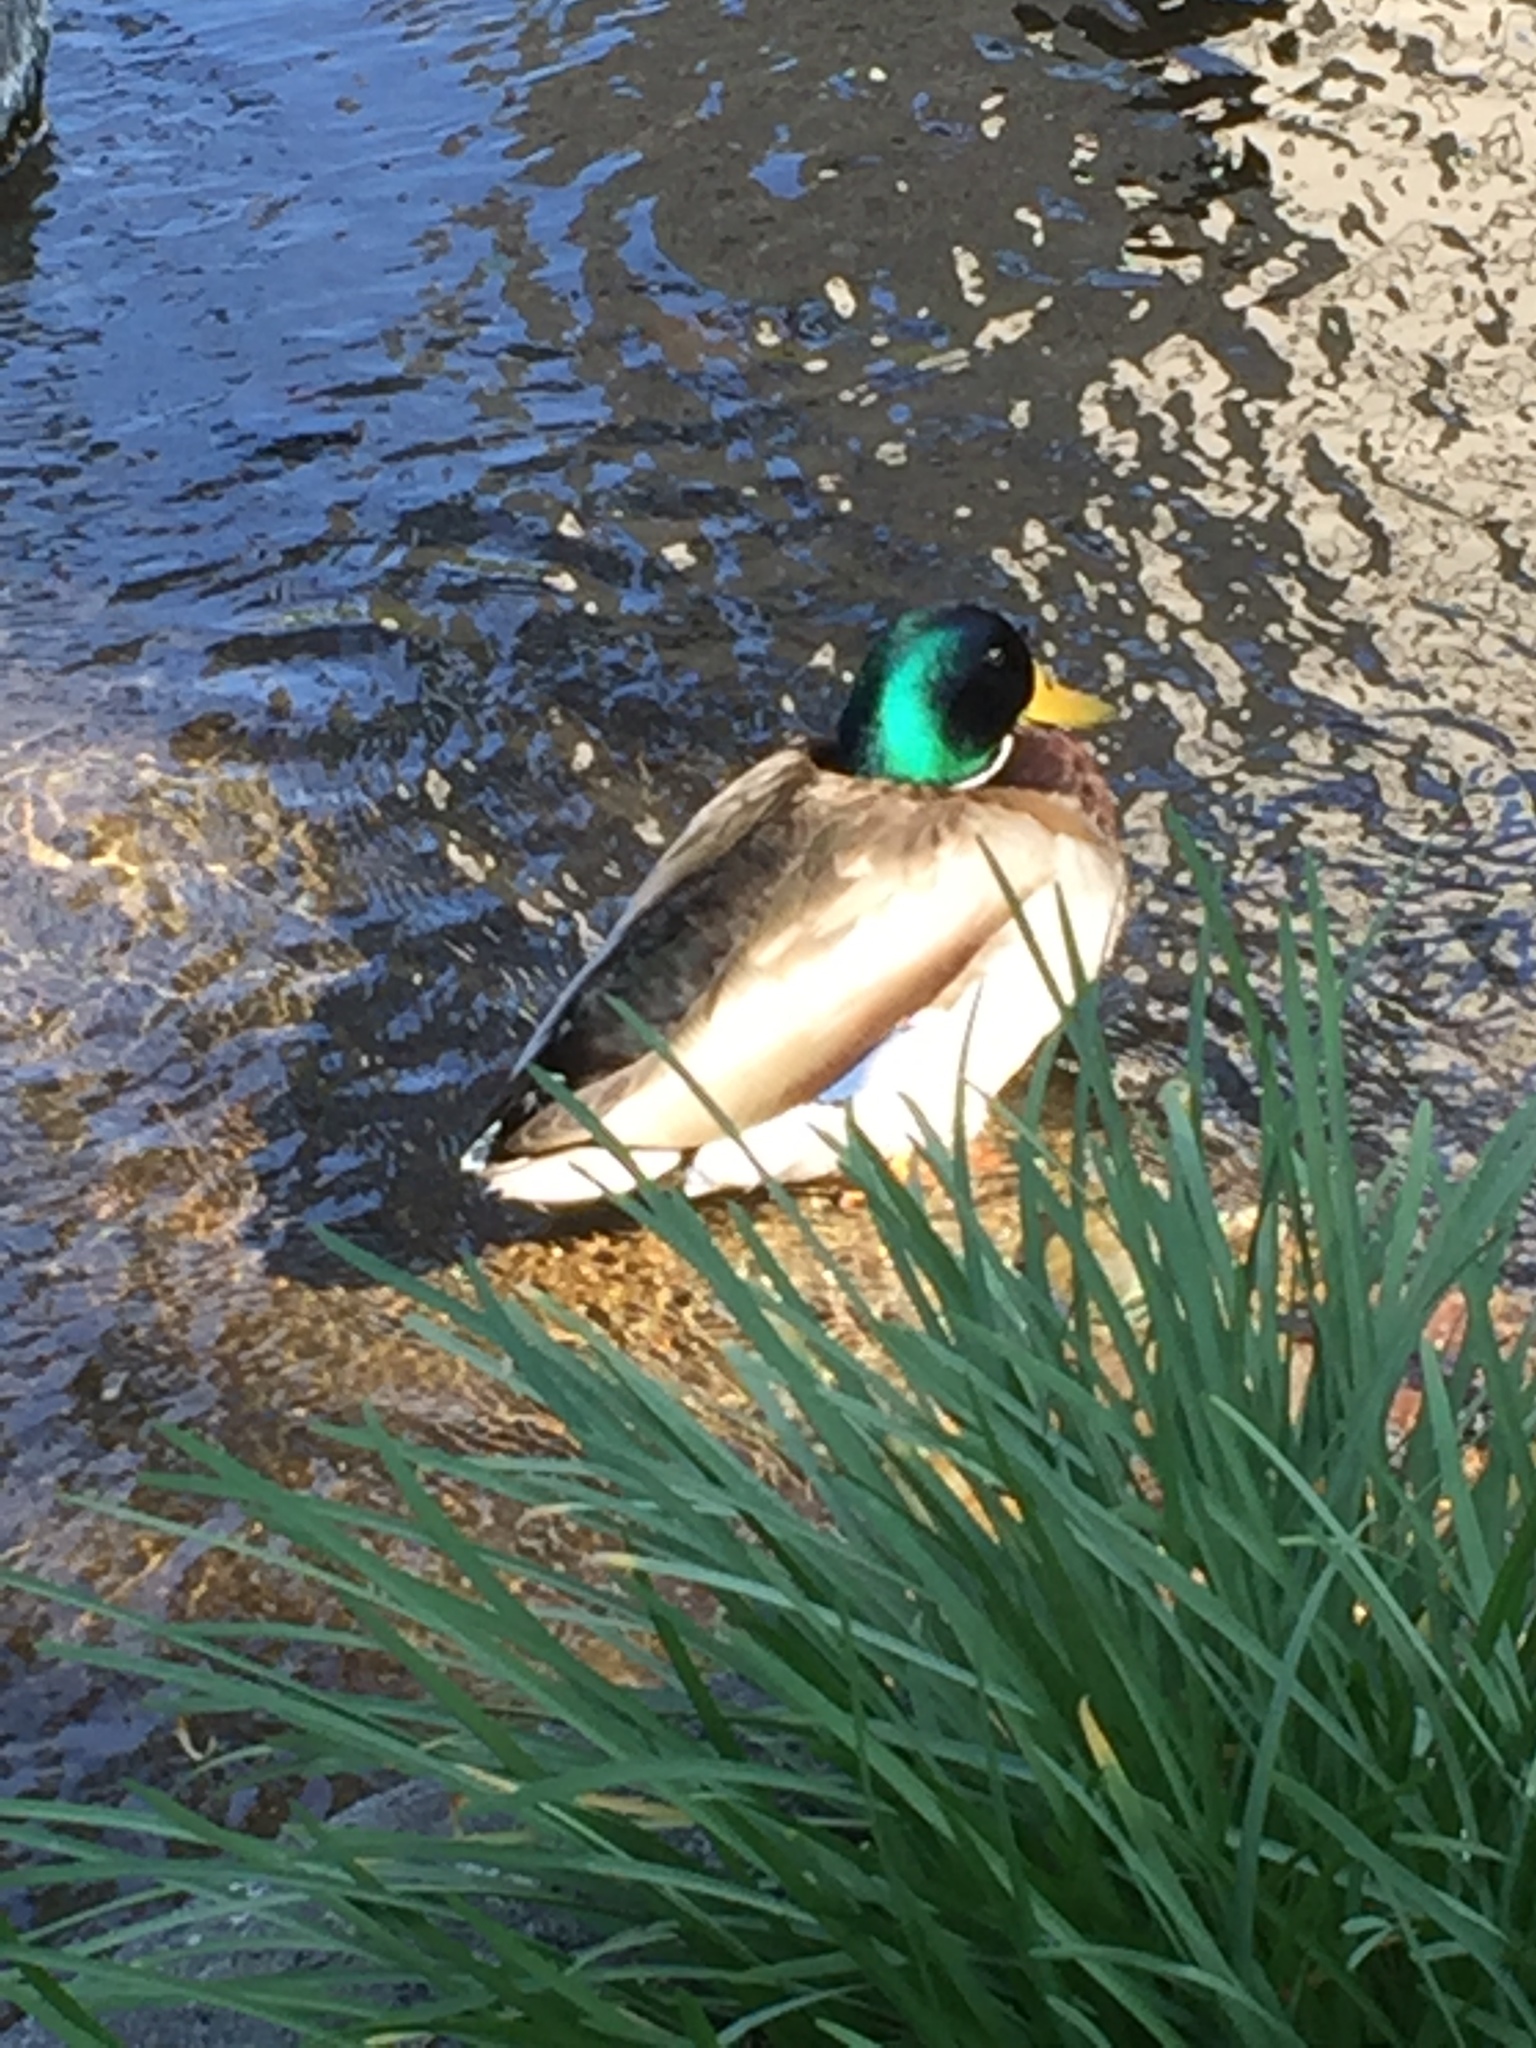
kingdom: Animalia
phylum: Chordata
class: Aves
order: Anseriformes
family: Anatidae
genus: Anas
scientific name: Anas platyrhynchos
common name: Mallard
